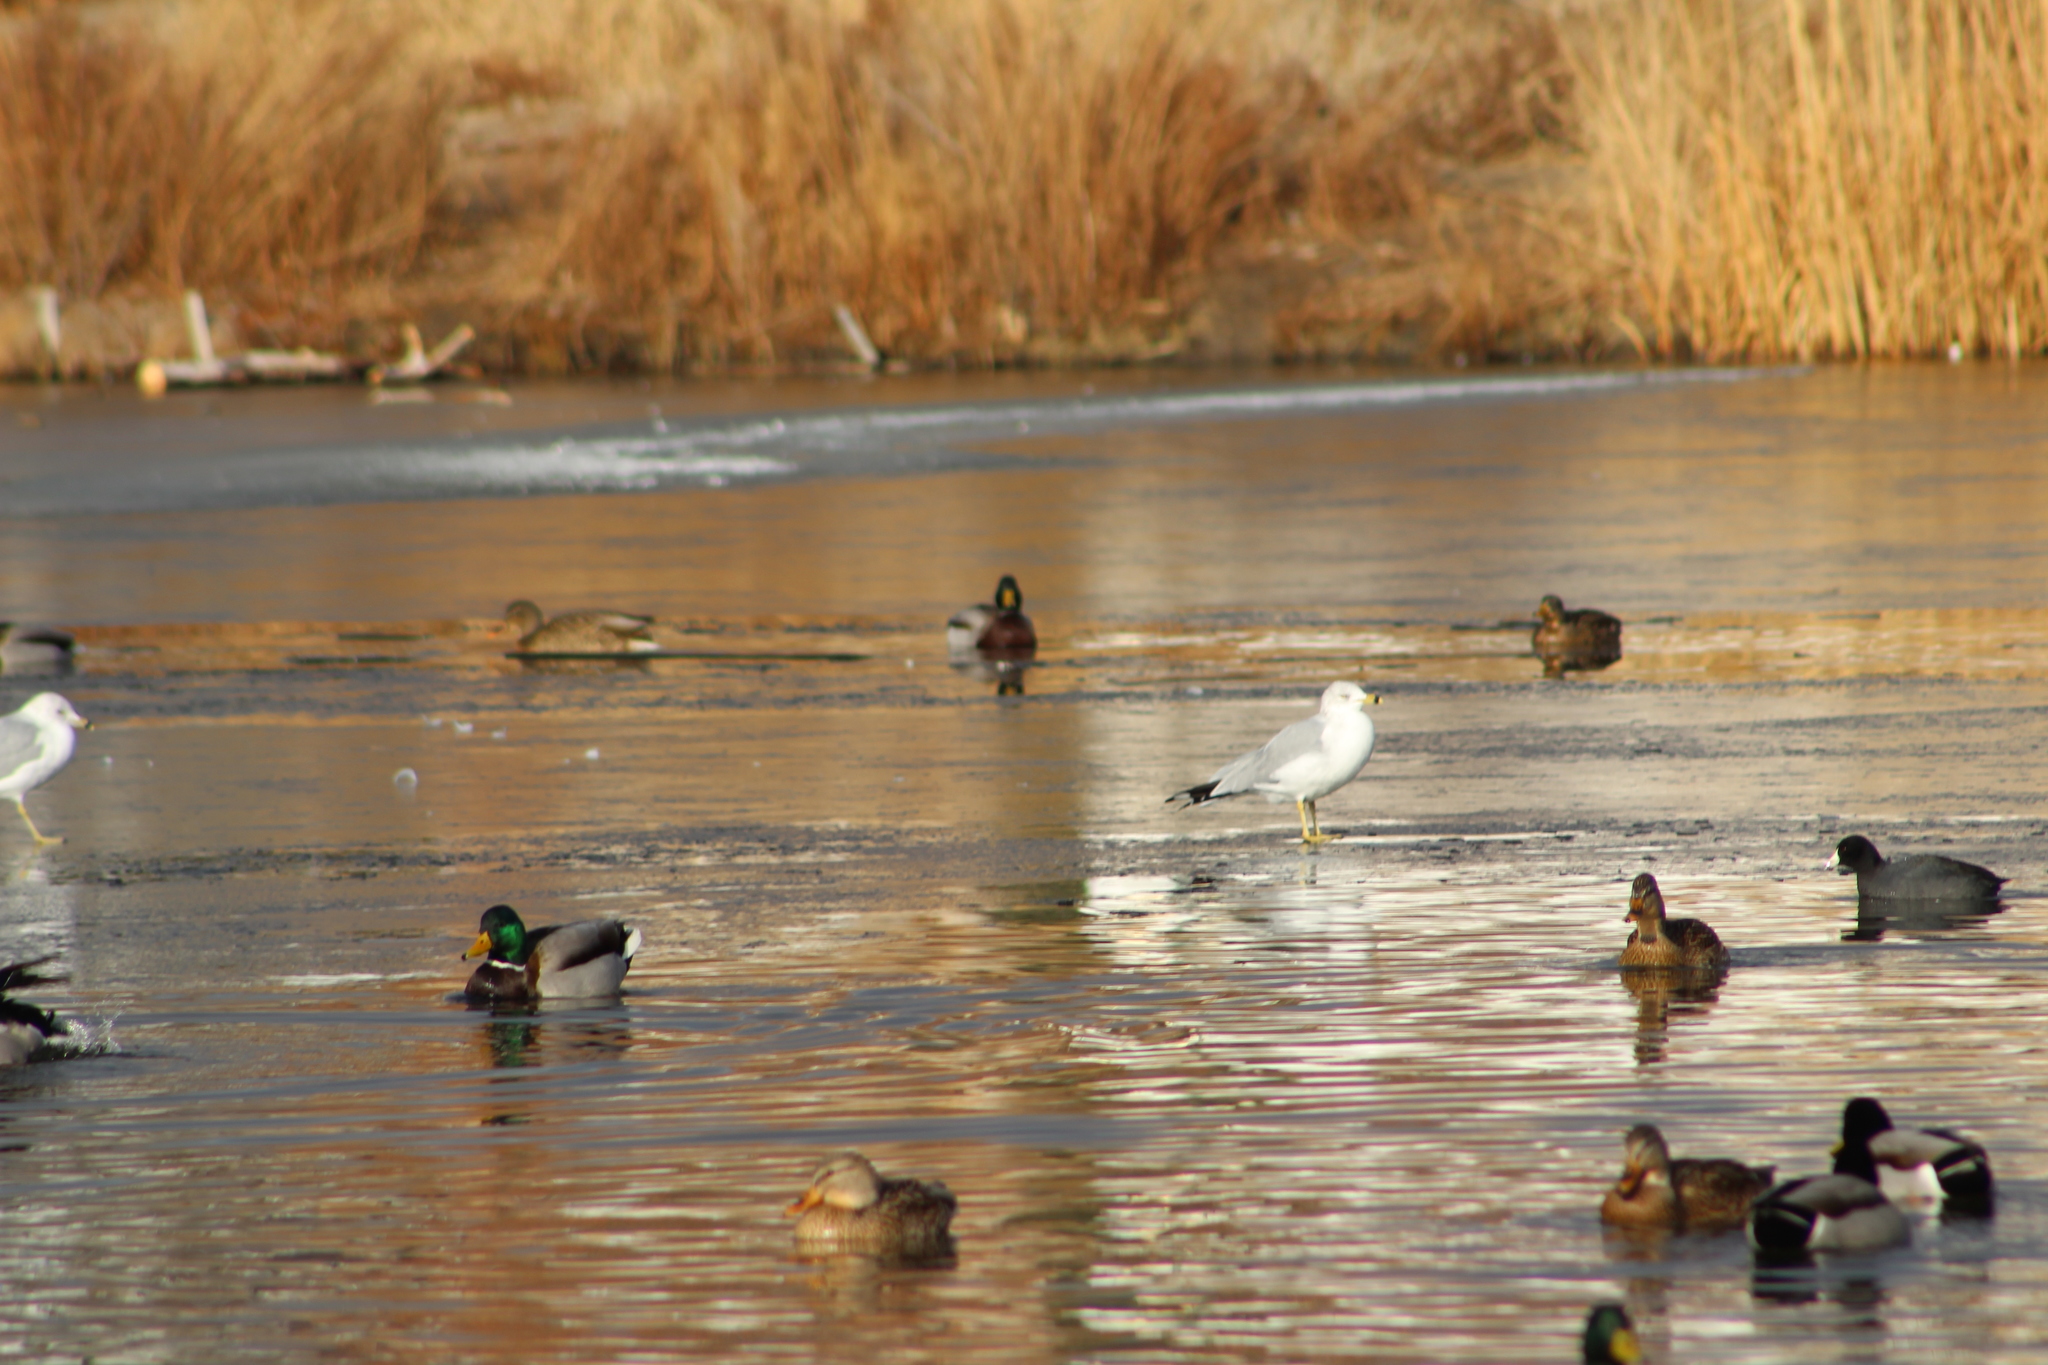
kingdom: Animalia
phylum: Chordata
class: Aves
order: Charadriiformes
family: Laridae
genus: Larus
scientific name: Larus delawarensis
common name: Ring-billed gull
